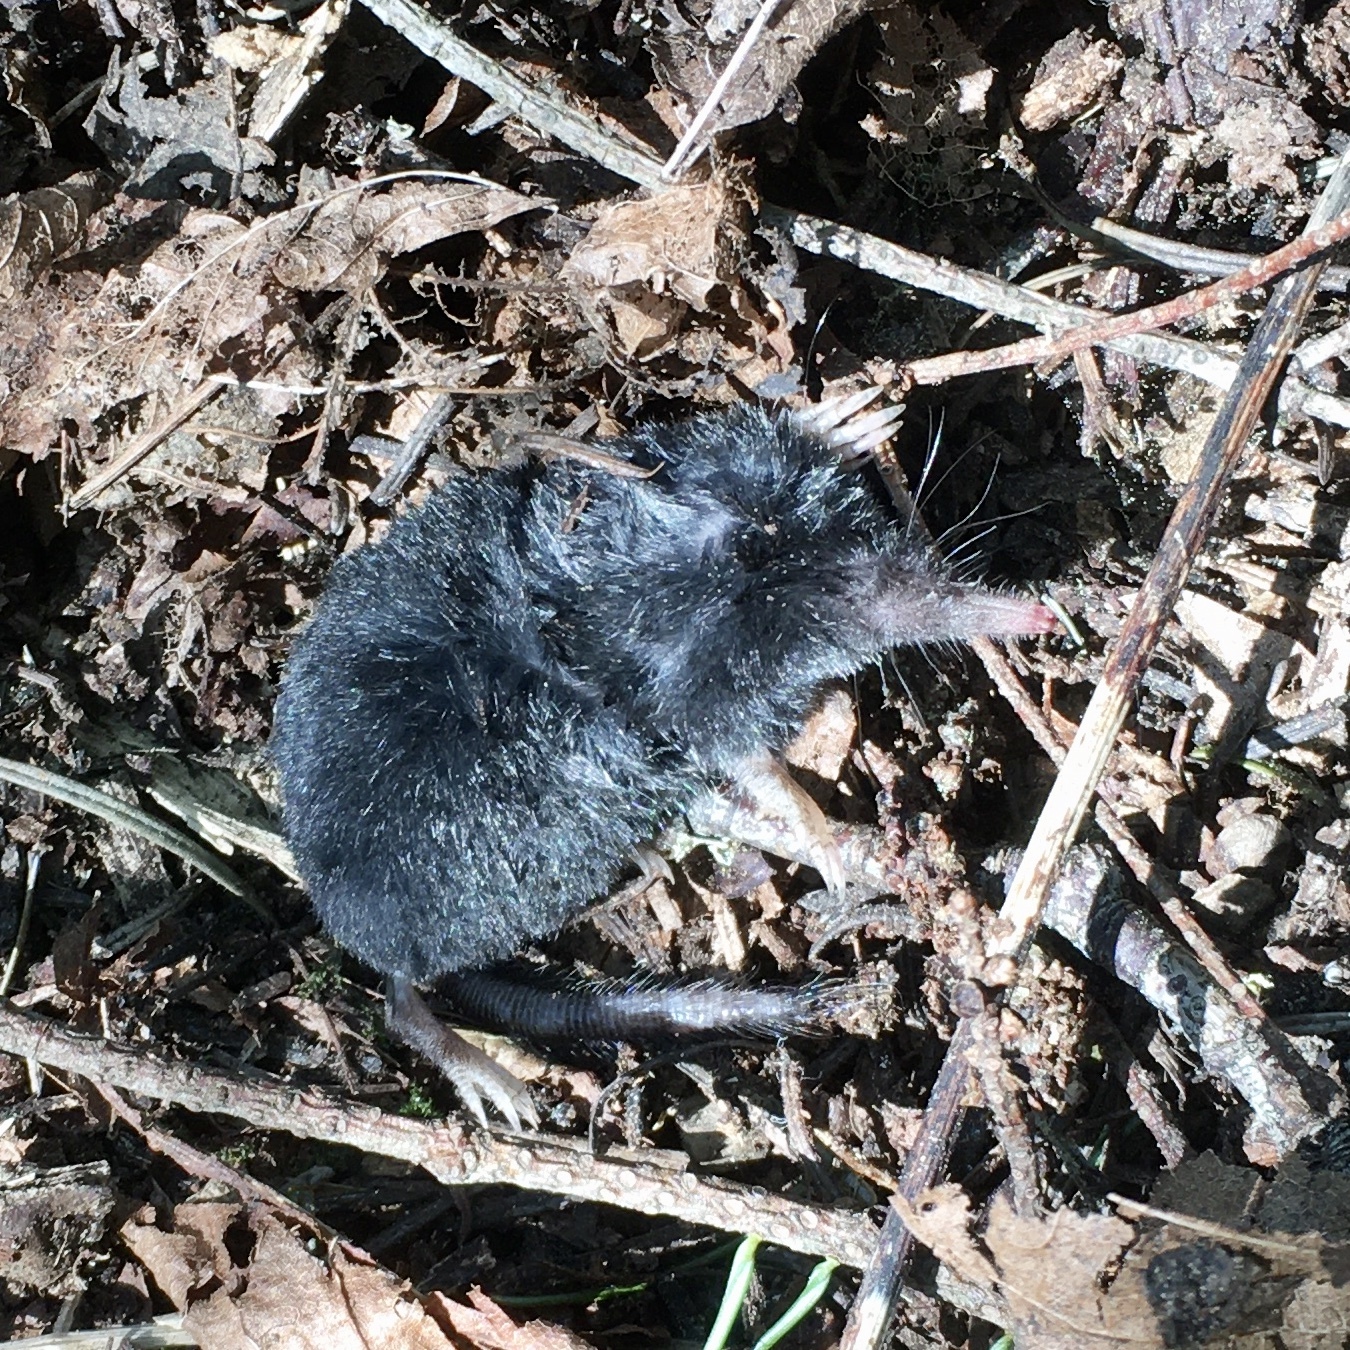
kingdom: Animalia
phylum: Chordata
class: Mammalia
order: Soricomorpha
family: Talpidae
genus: Neurotrichus
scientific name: Neurotrichus gibbsii
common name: American shrew mole
